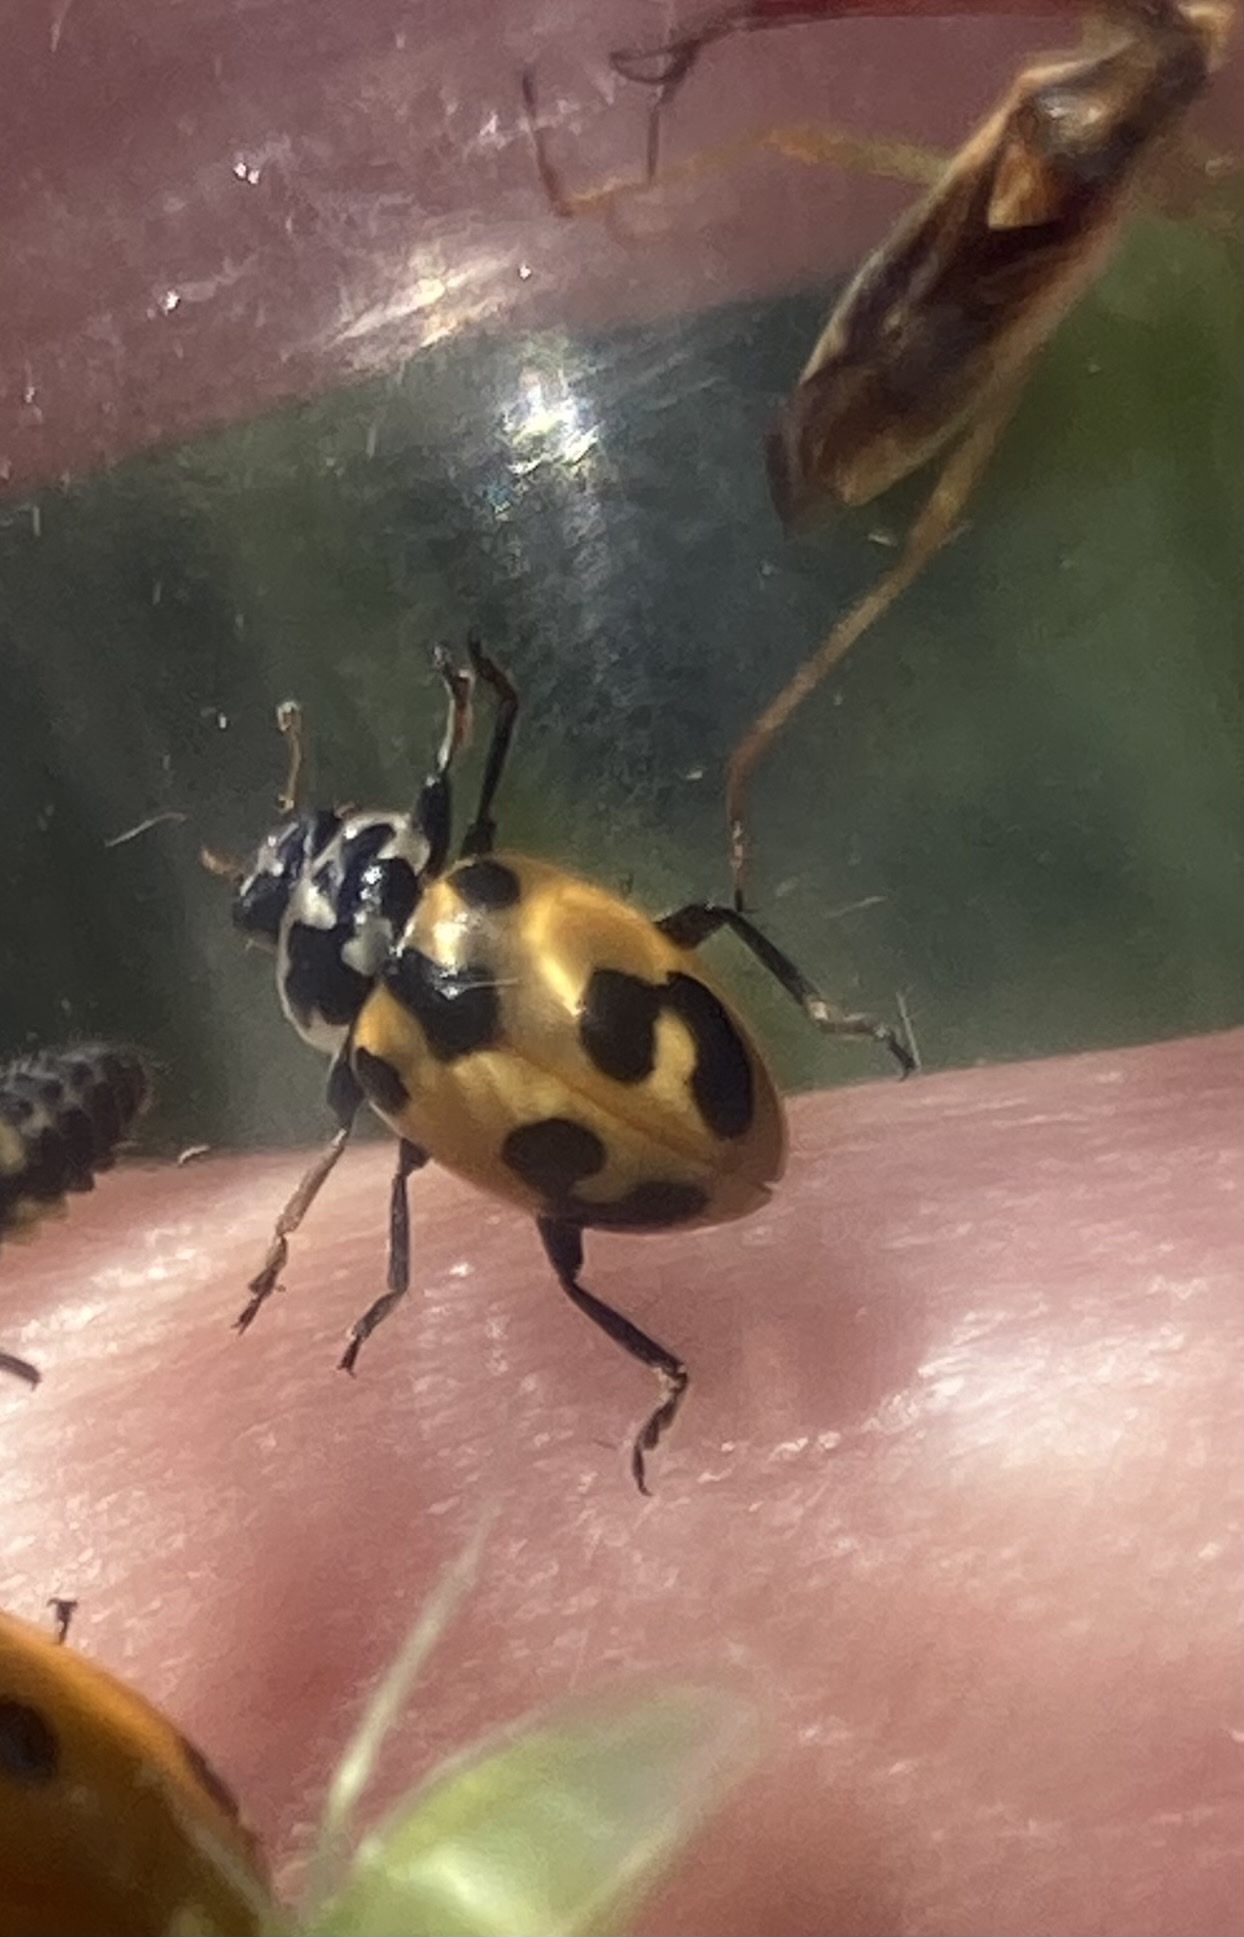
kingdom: Animalia
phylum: Arthropoda
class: Insecta
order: Coleoptera
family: Coccinellidae
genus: Hippodamia
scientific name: Hippodamia parenthesis
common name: Parenthesis lady beetle
